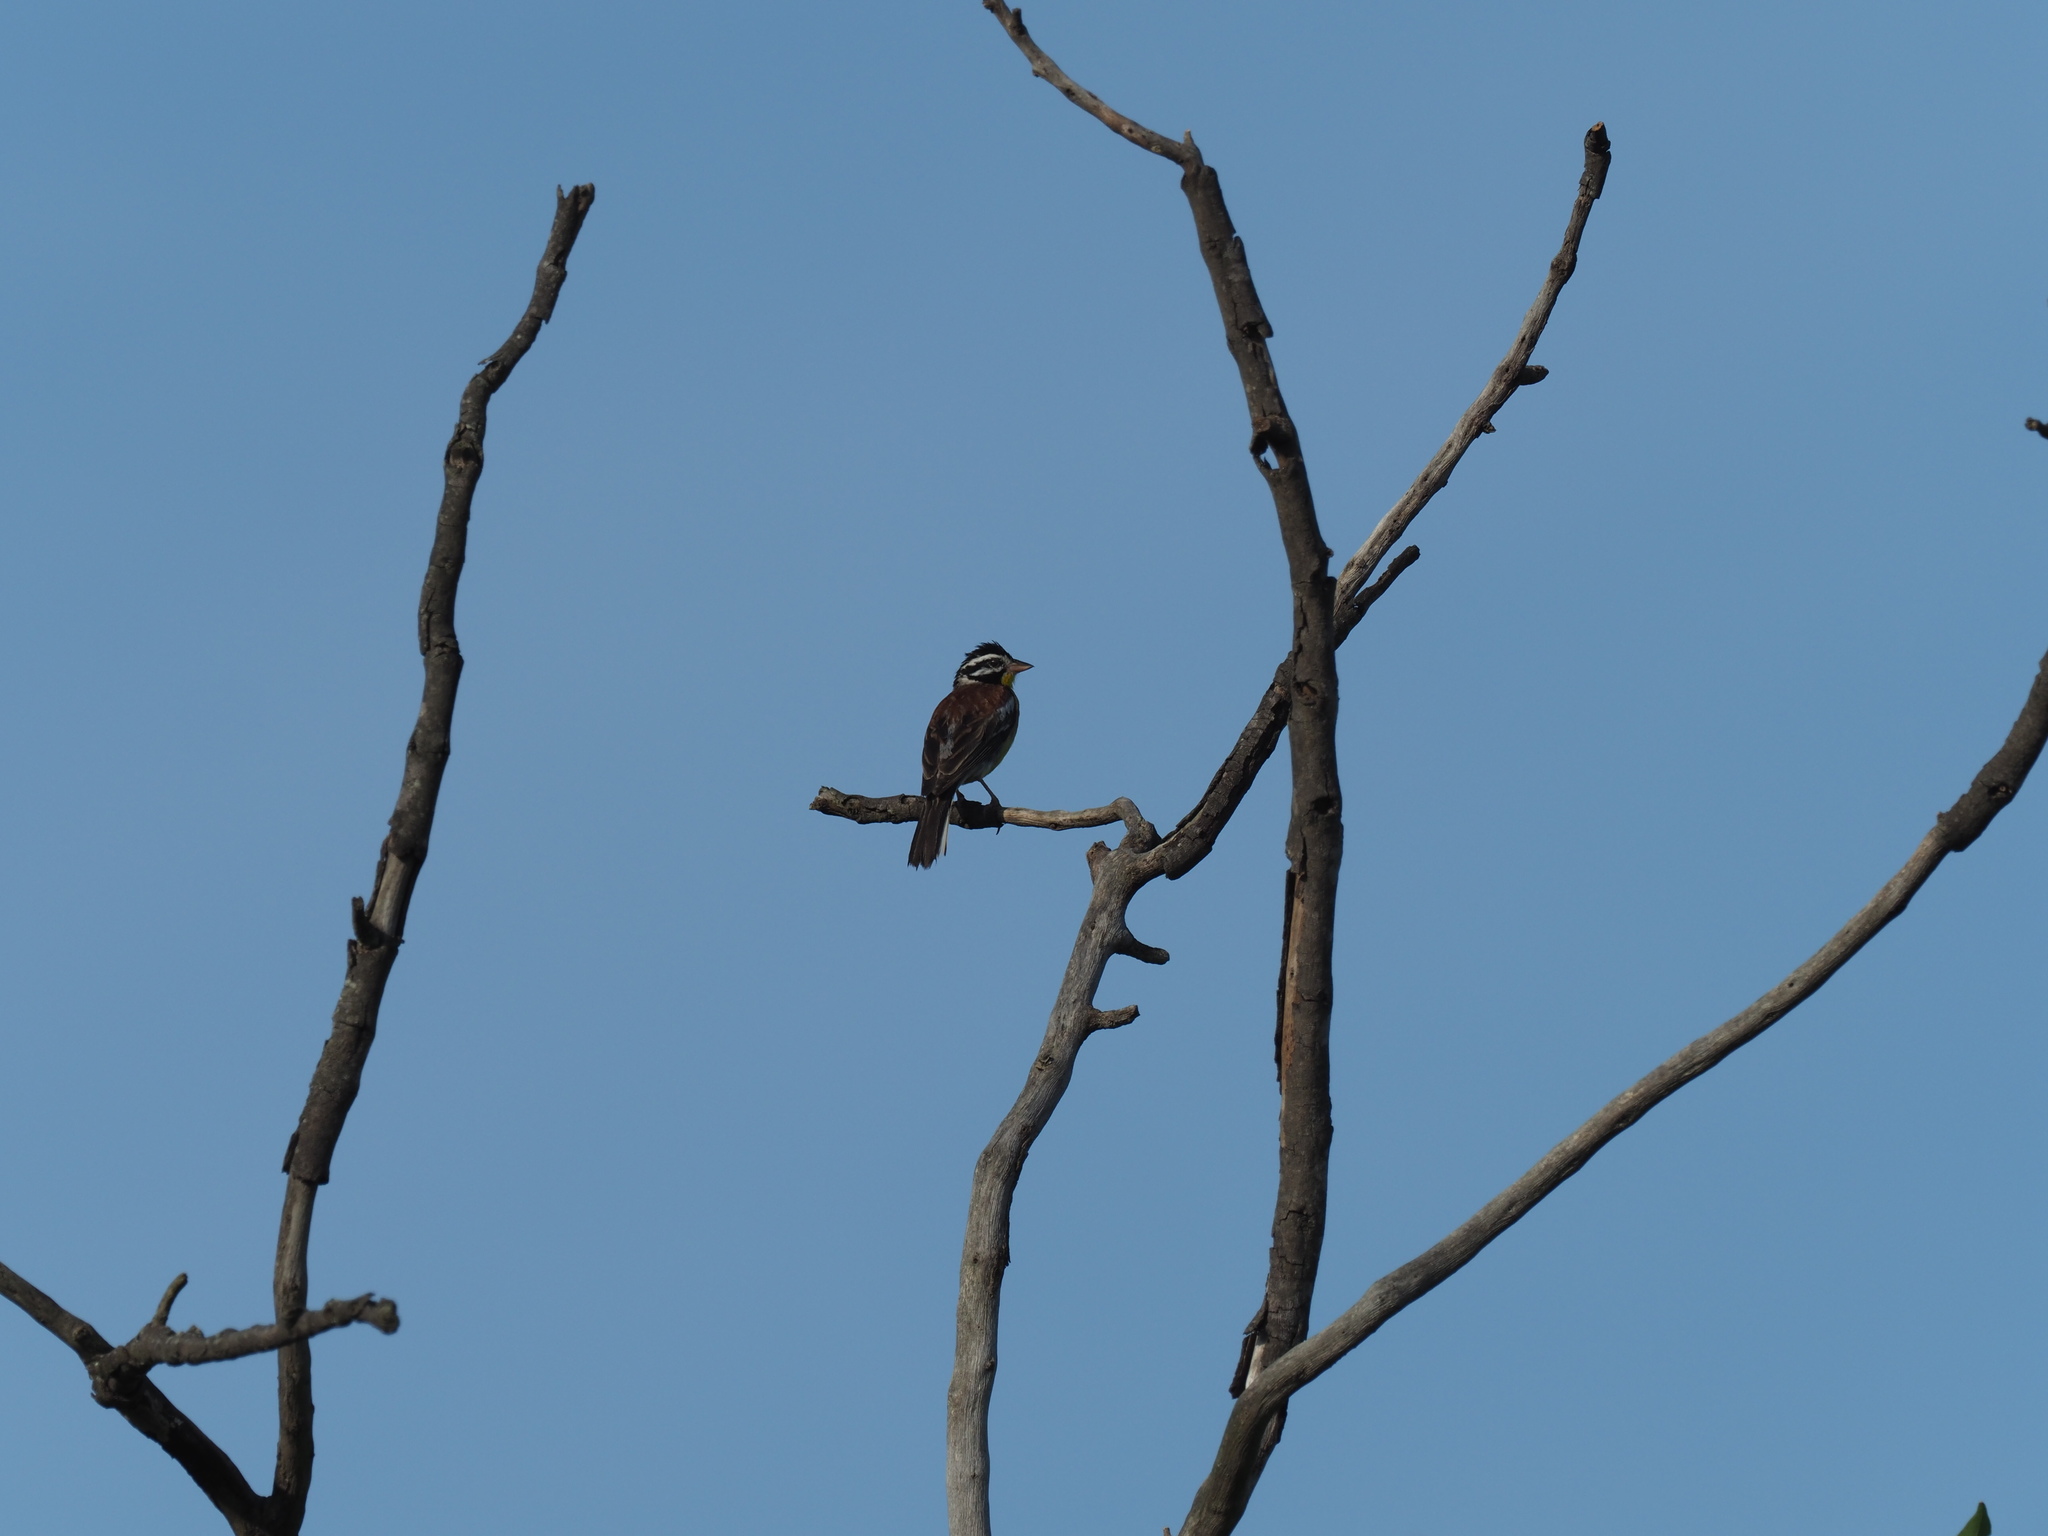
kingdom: Animalia
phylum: Chordata
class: Aves
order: Passeriformes
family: Emberizidae
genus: Emberiza
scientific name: Emberiza flaviventris
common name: Golden-breasted bunting
